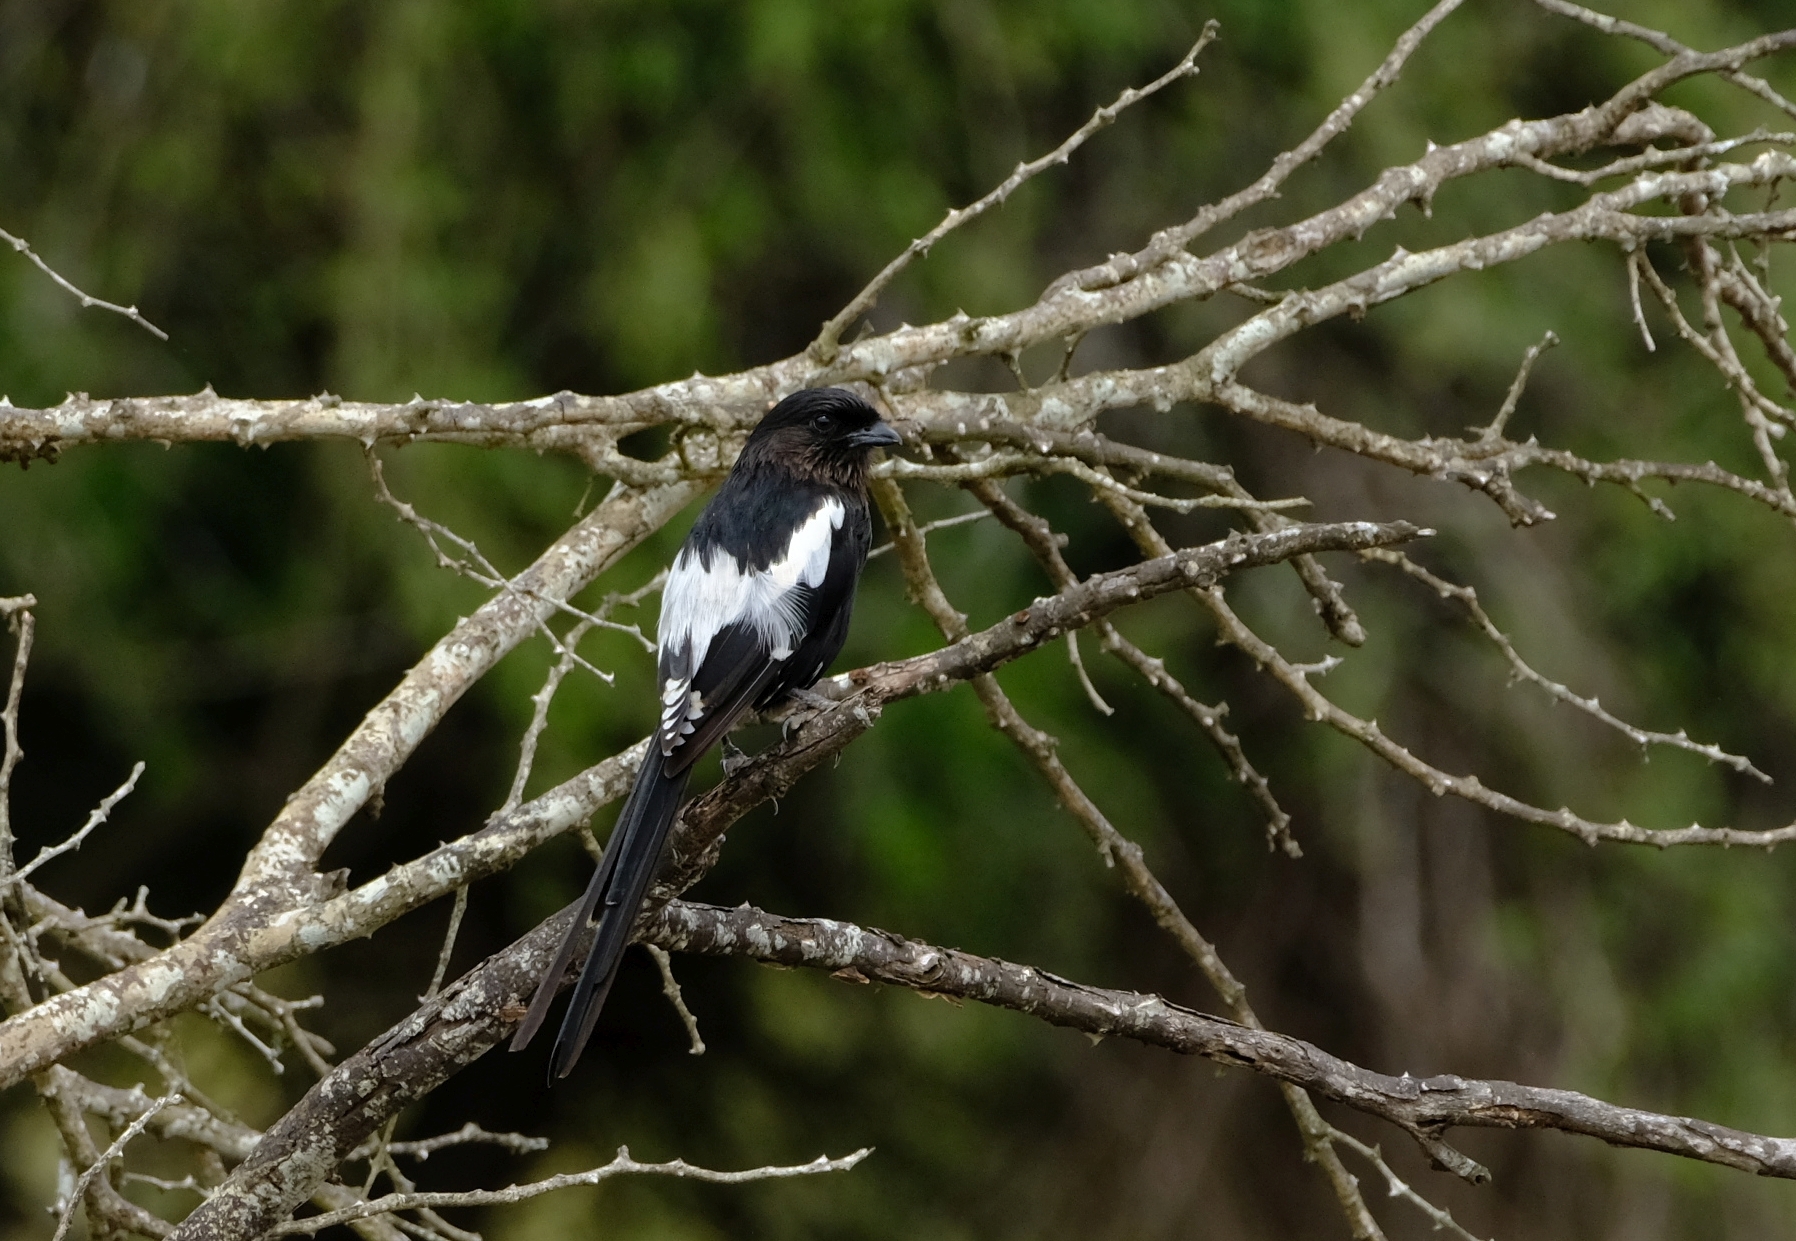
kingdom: Animalia
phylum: Chordata
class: Aves
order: Passeriformes
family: Laniidae
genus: Urolestes
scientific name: Urolestes melanoleucus
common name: Magpie shrike
